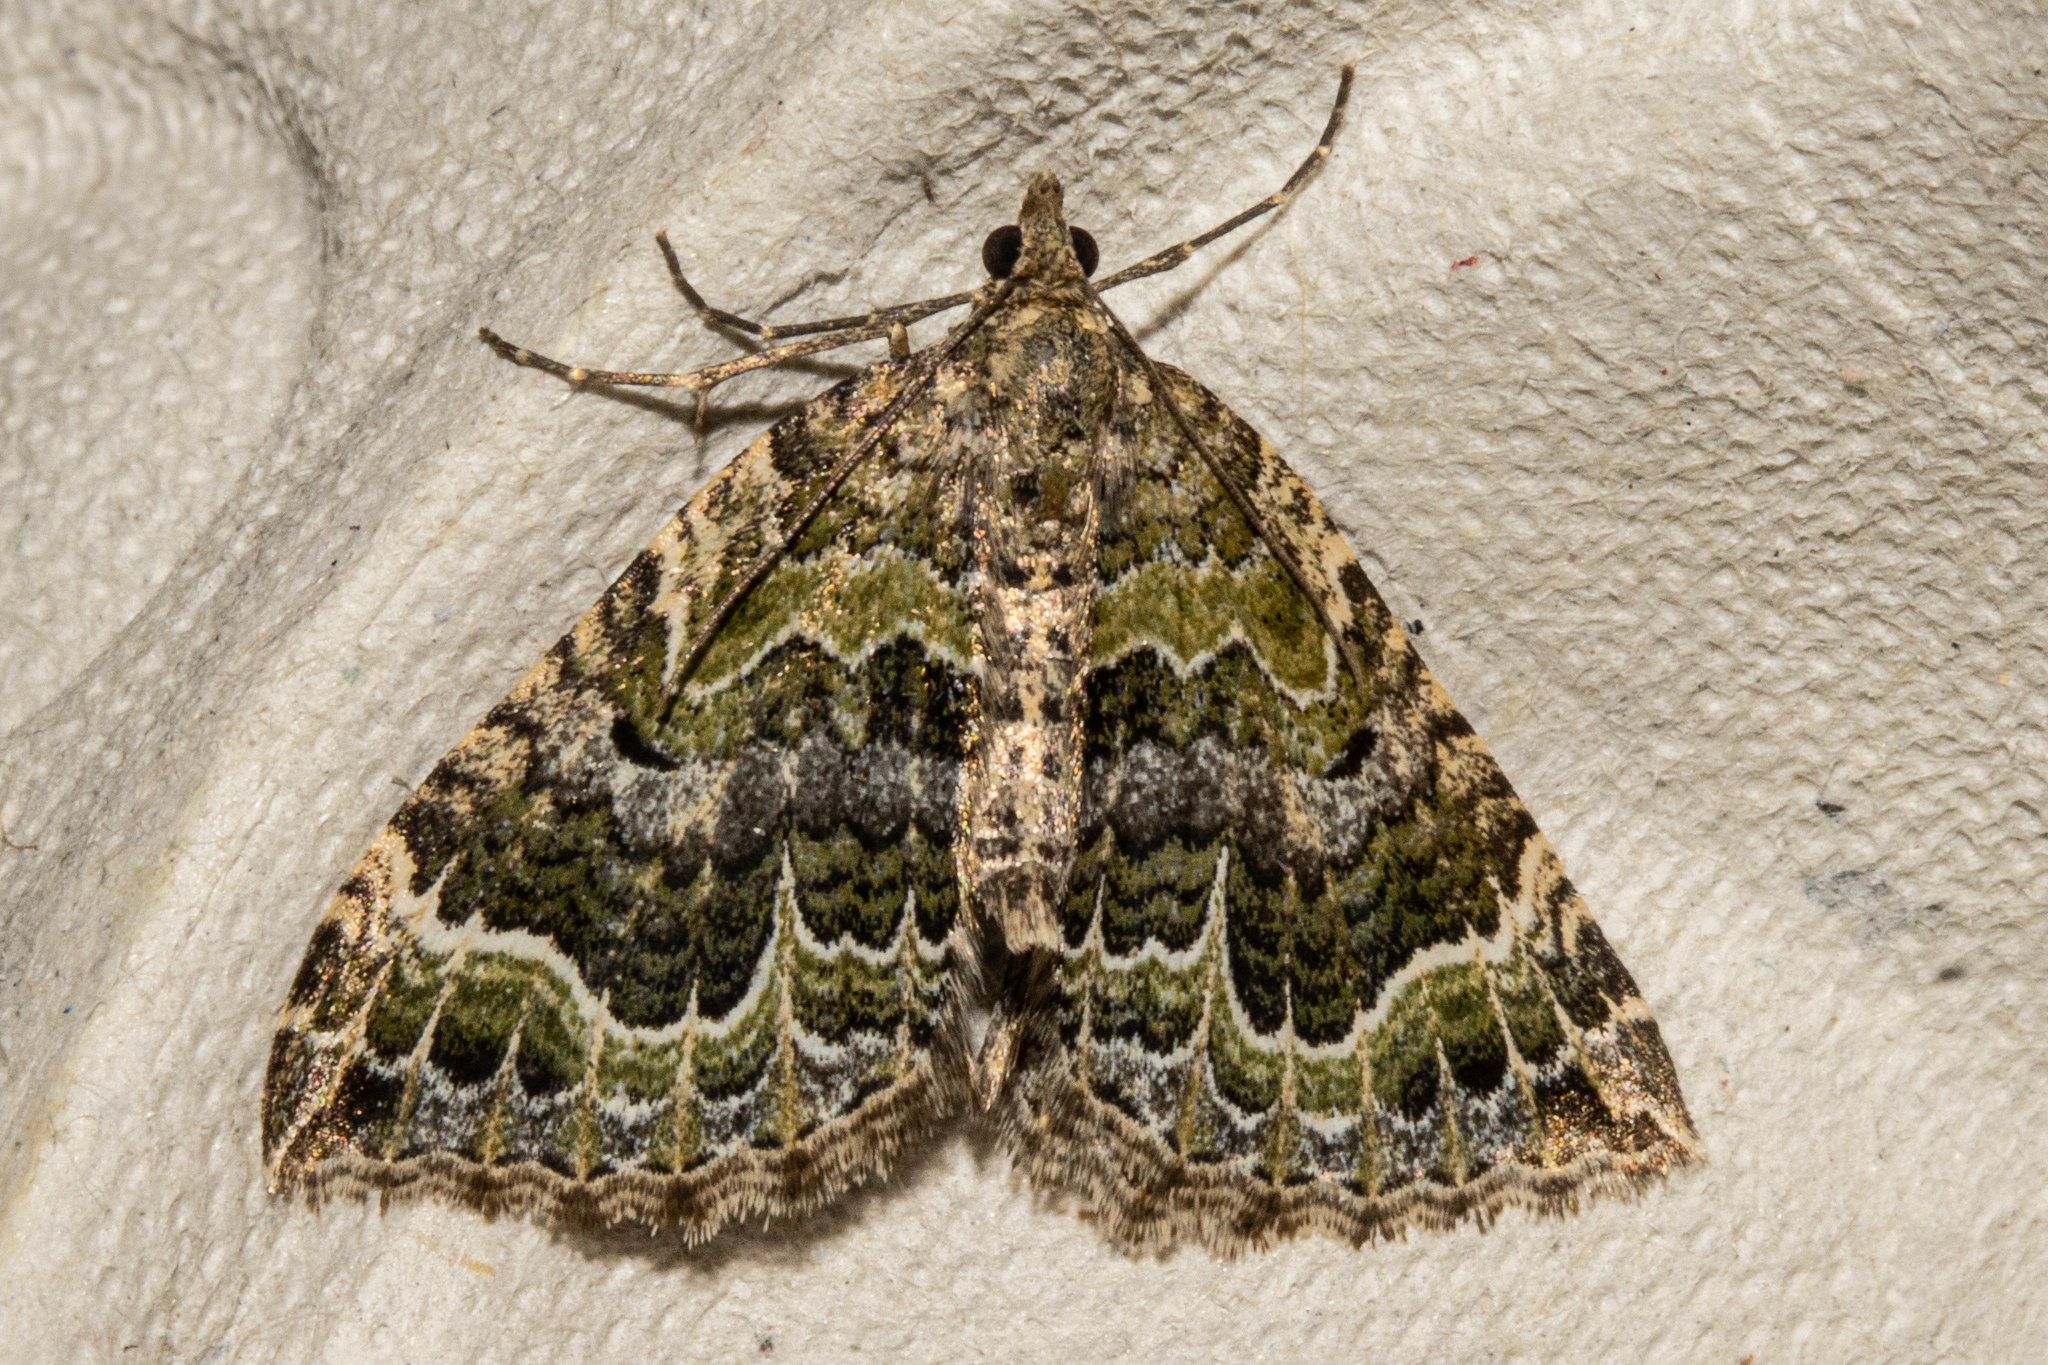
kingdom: Animalia
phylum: Arthropoda
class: Insecta
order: Lepidoptera
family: Geometridae
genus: Hydriomena
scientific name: Hydriomena rixata
